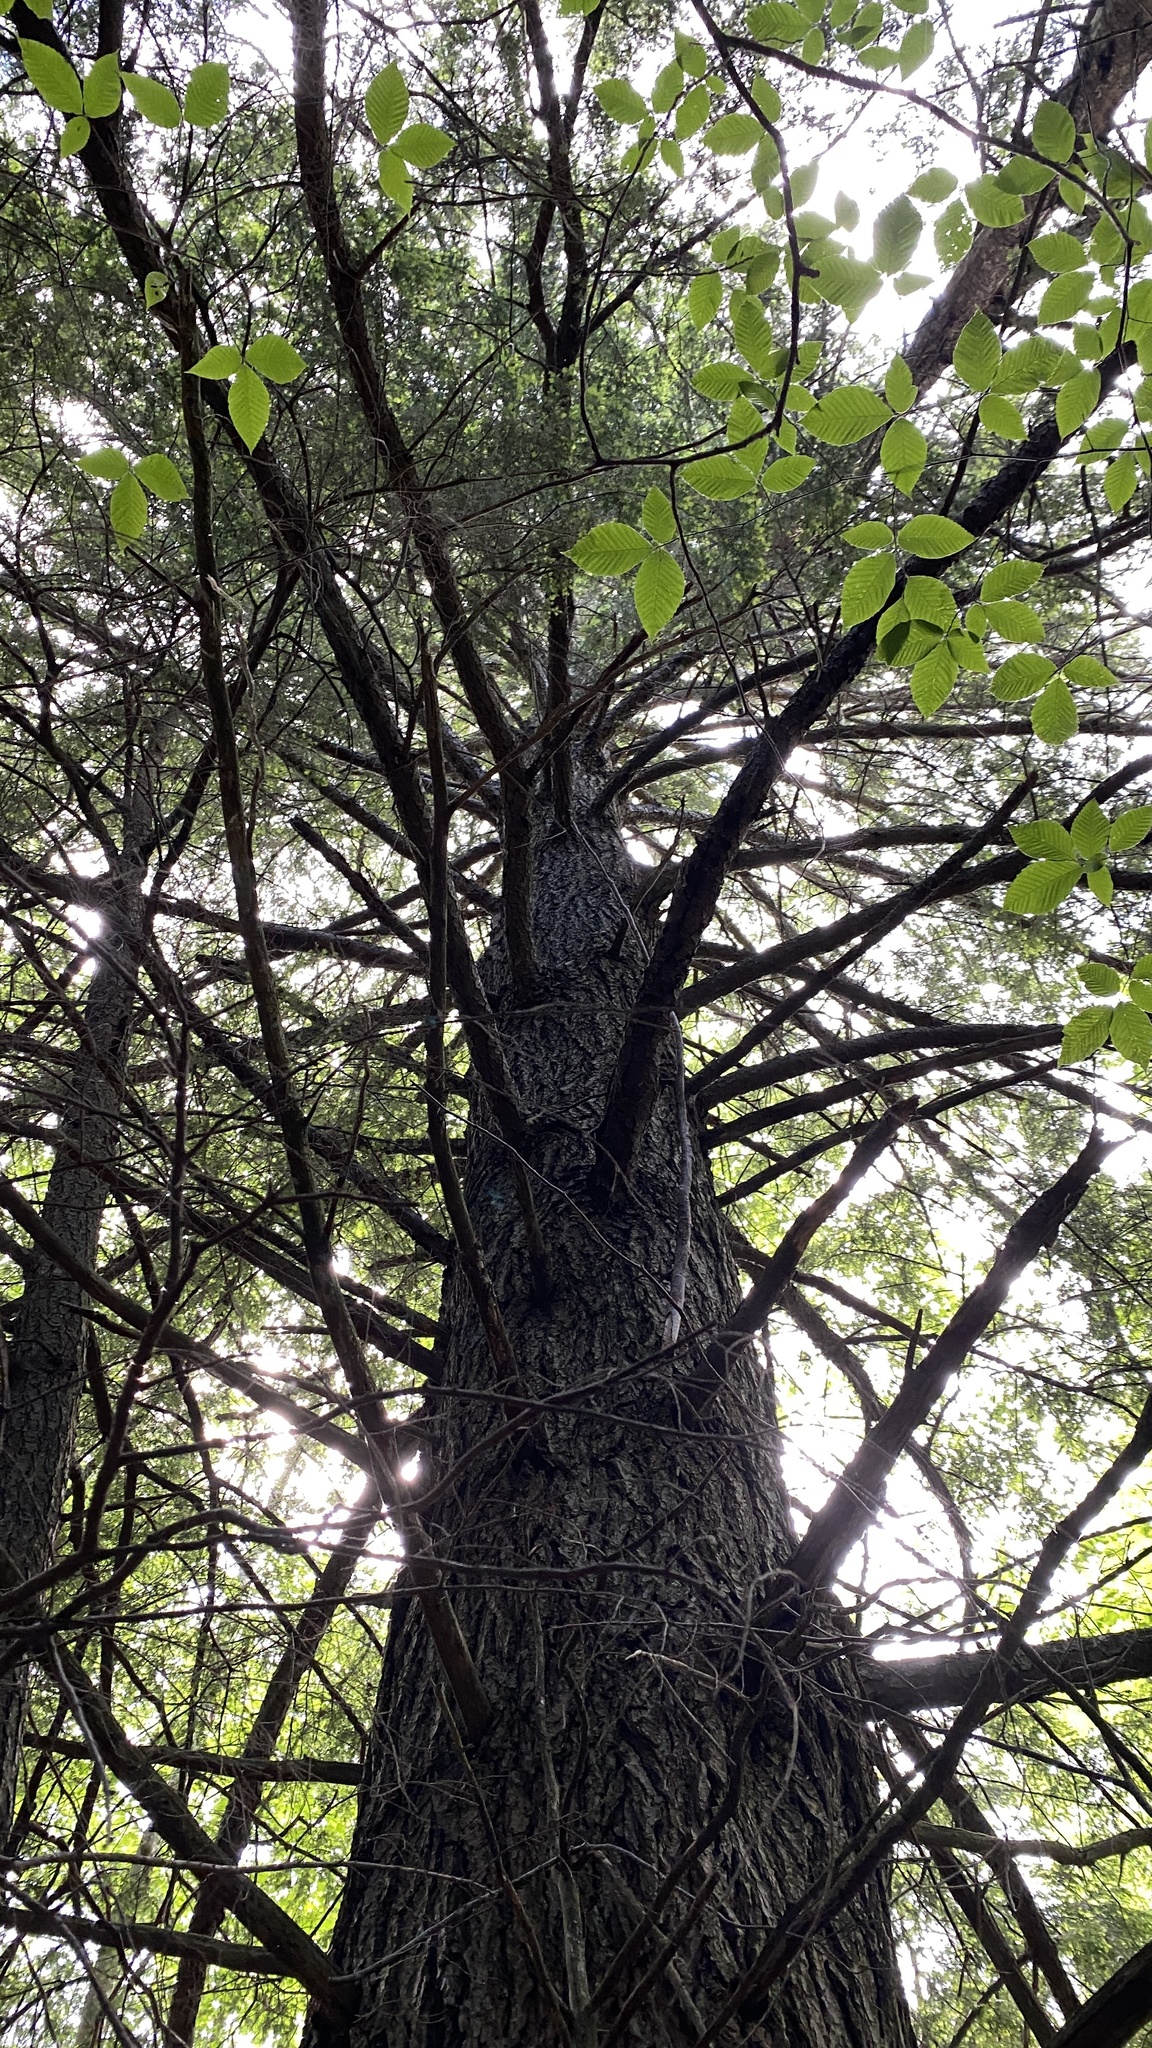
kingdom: Plantae
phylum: Tracheophyta
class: Pinopsida
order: Pinales
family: Pinaceae
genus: Tsuga
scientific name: Tsuga canadensis
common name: Eastern hemlock
